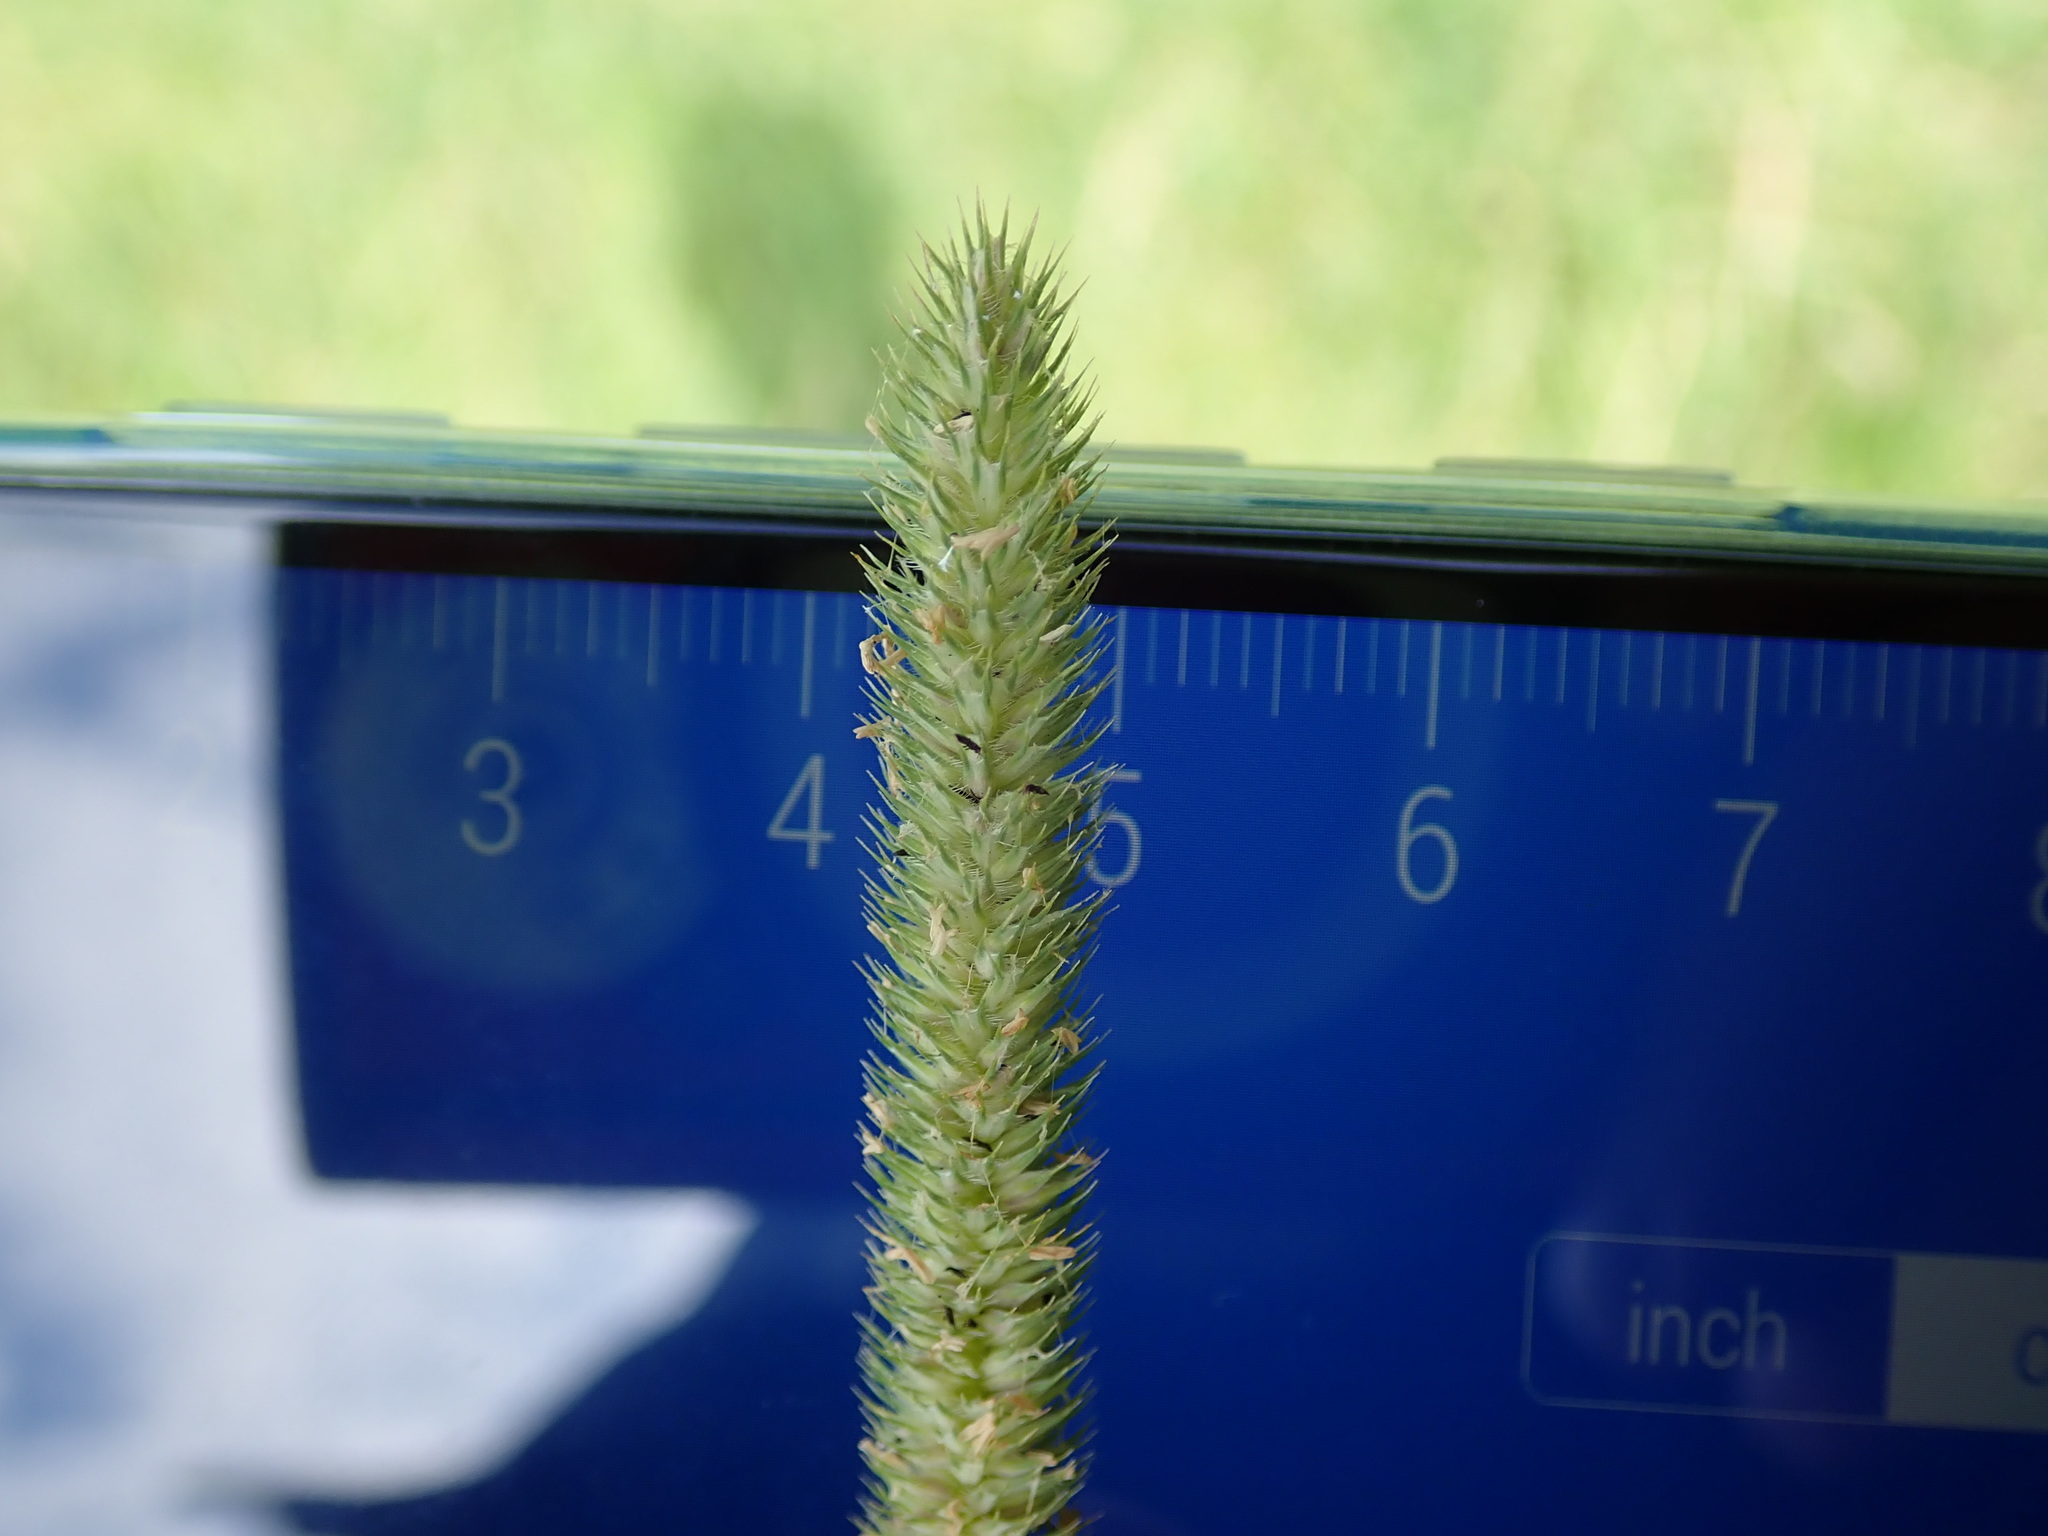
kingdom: Plantae
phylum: Tracheophyta
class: Liliopsida
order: Poales
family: Poaceae
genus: Phleum
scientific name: Phleum pratense
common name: Timothy grass
